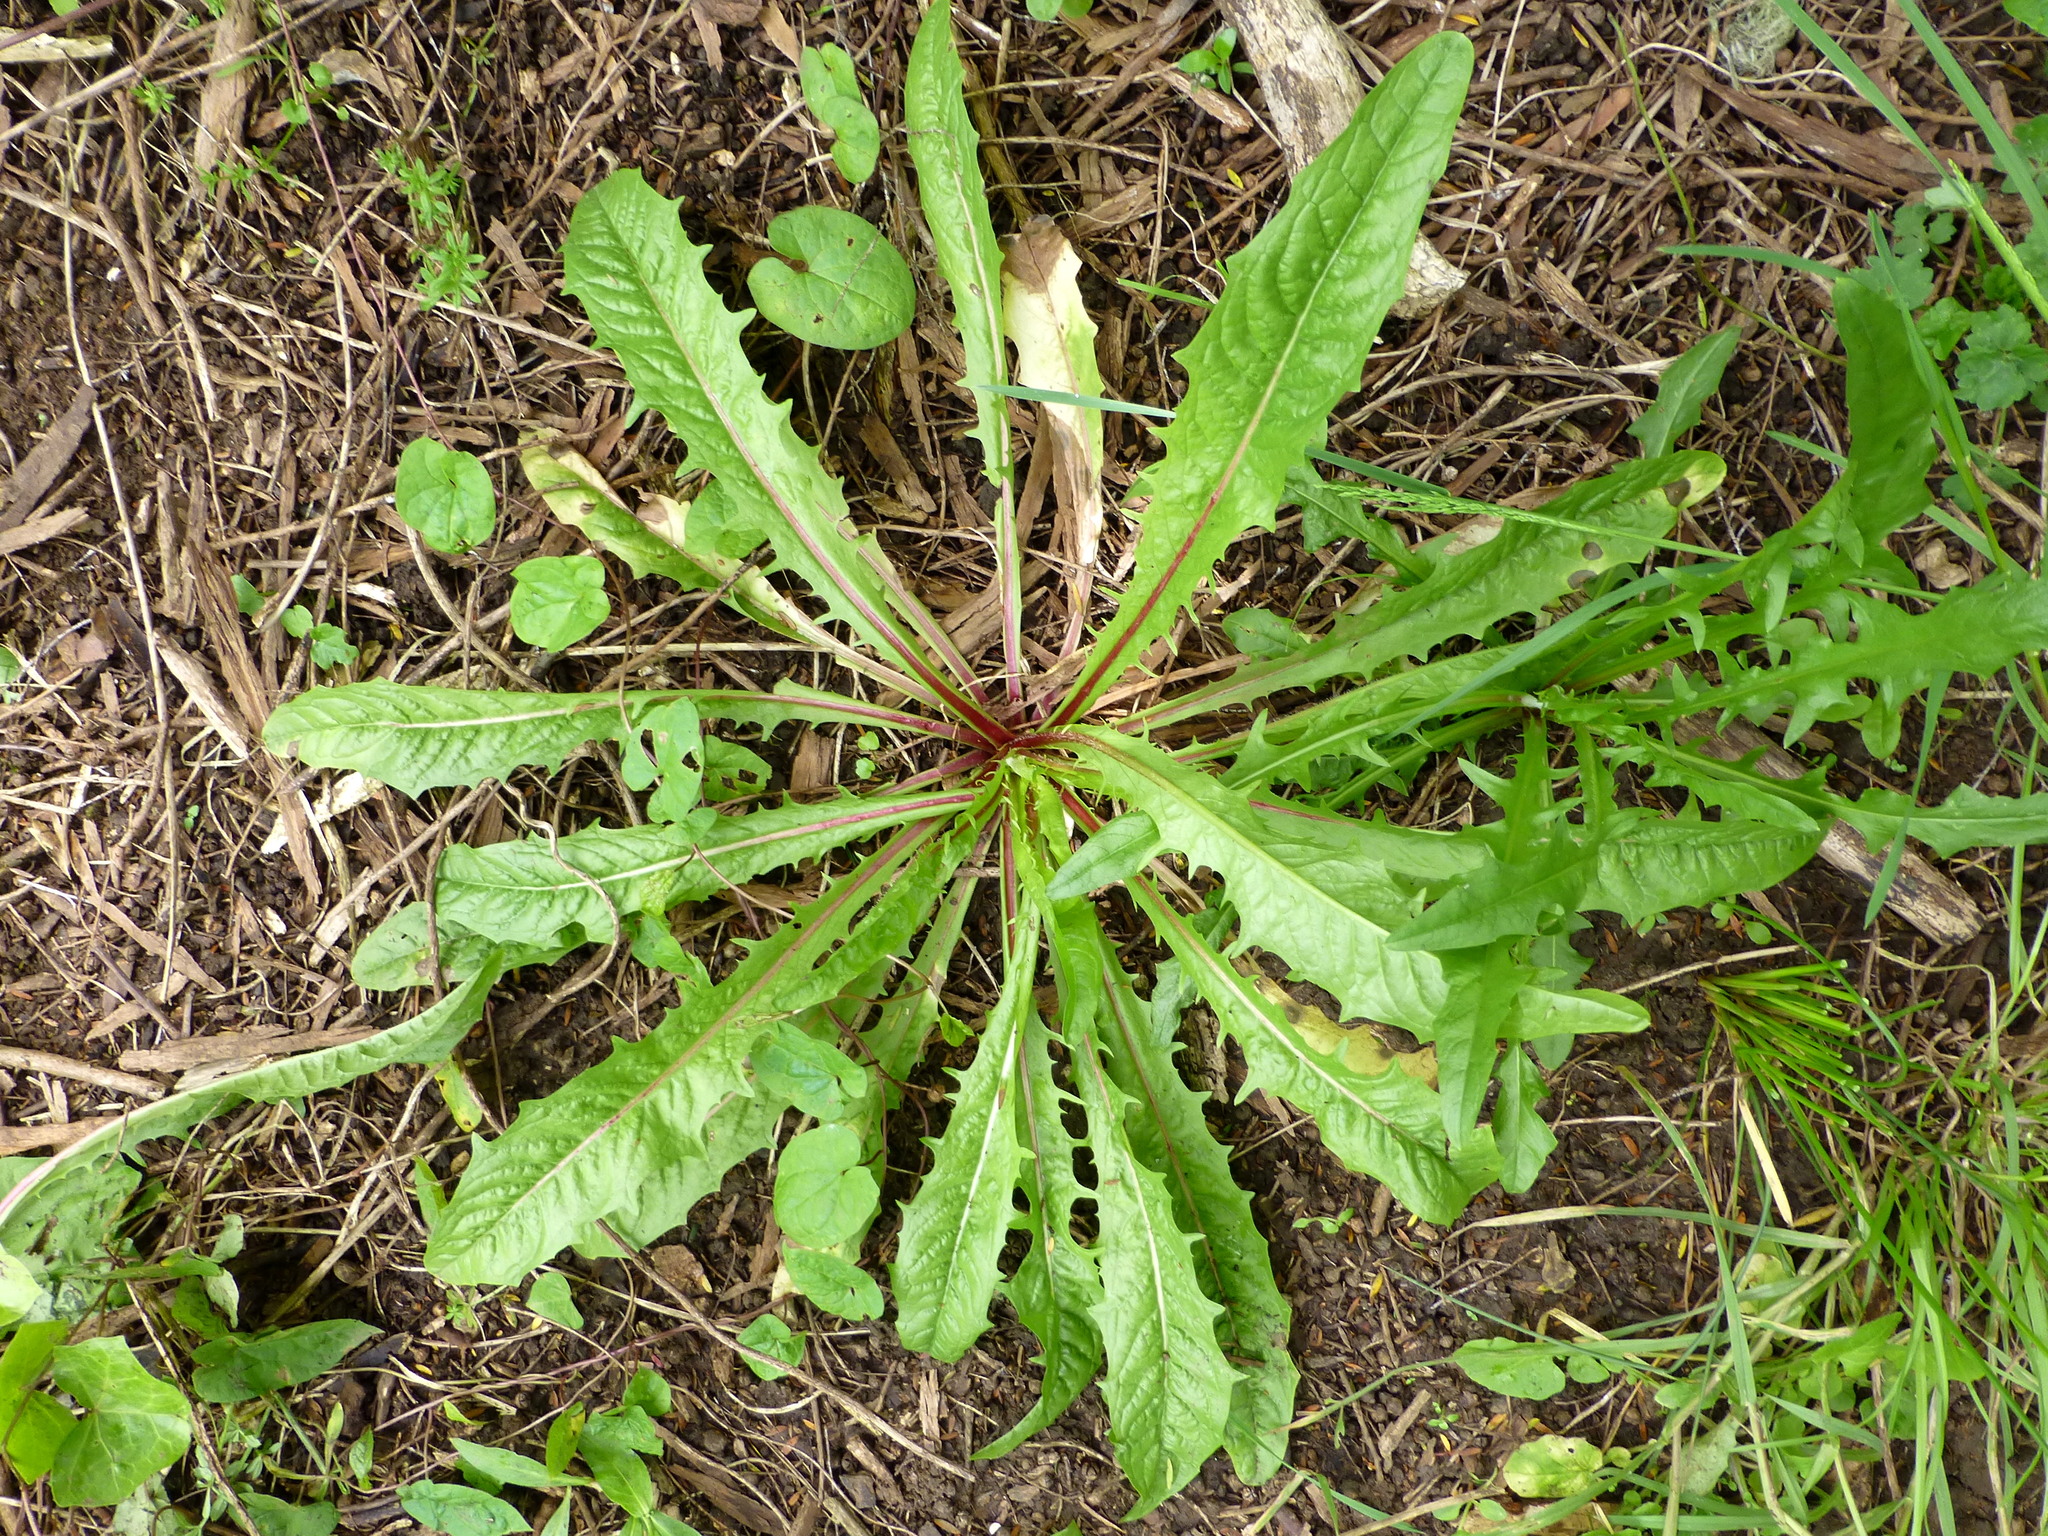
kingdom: Plantae
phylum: Tracheophyta
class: Magnoliopsida
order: Asterales
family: Asteraceae
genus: Crepis
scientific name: Crepis capillaris
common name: Smooth hawksbeard
